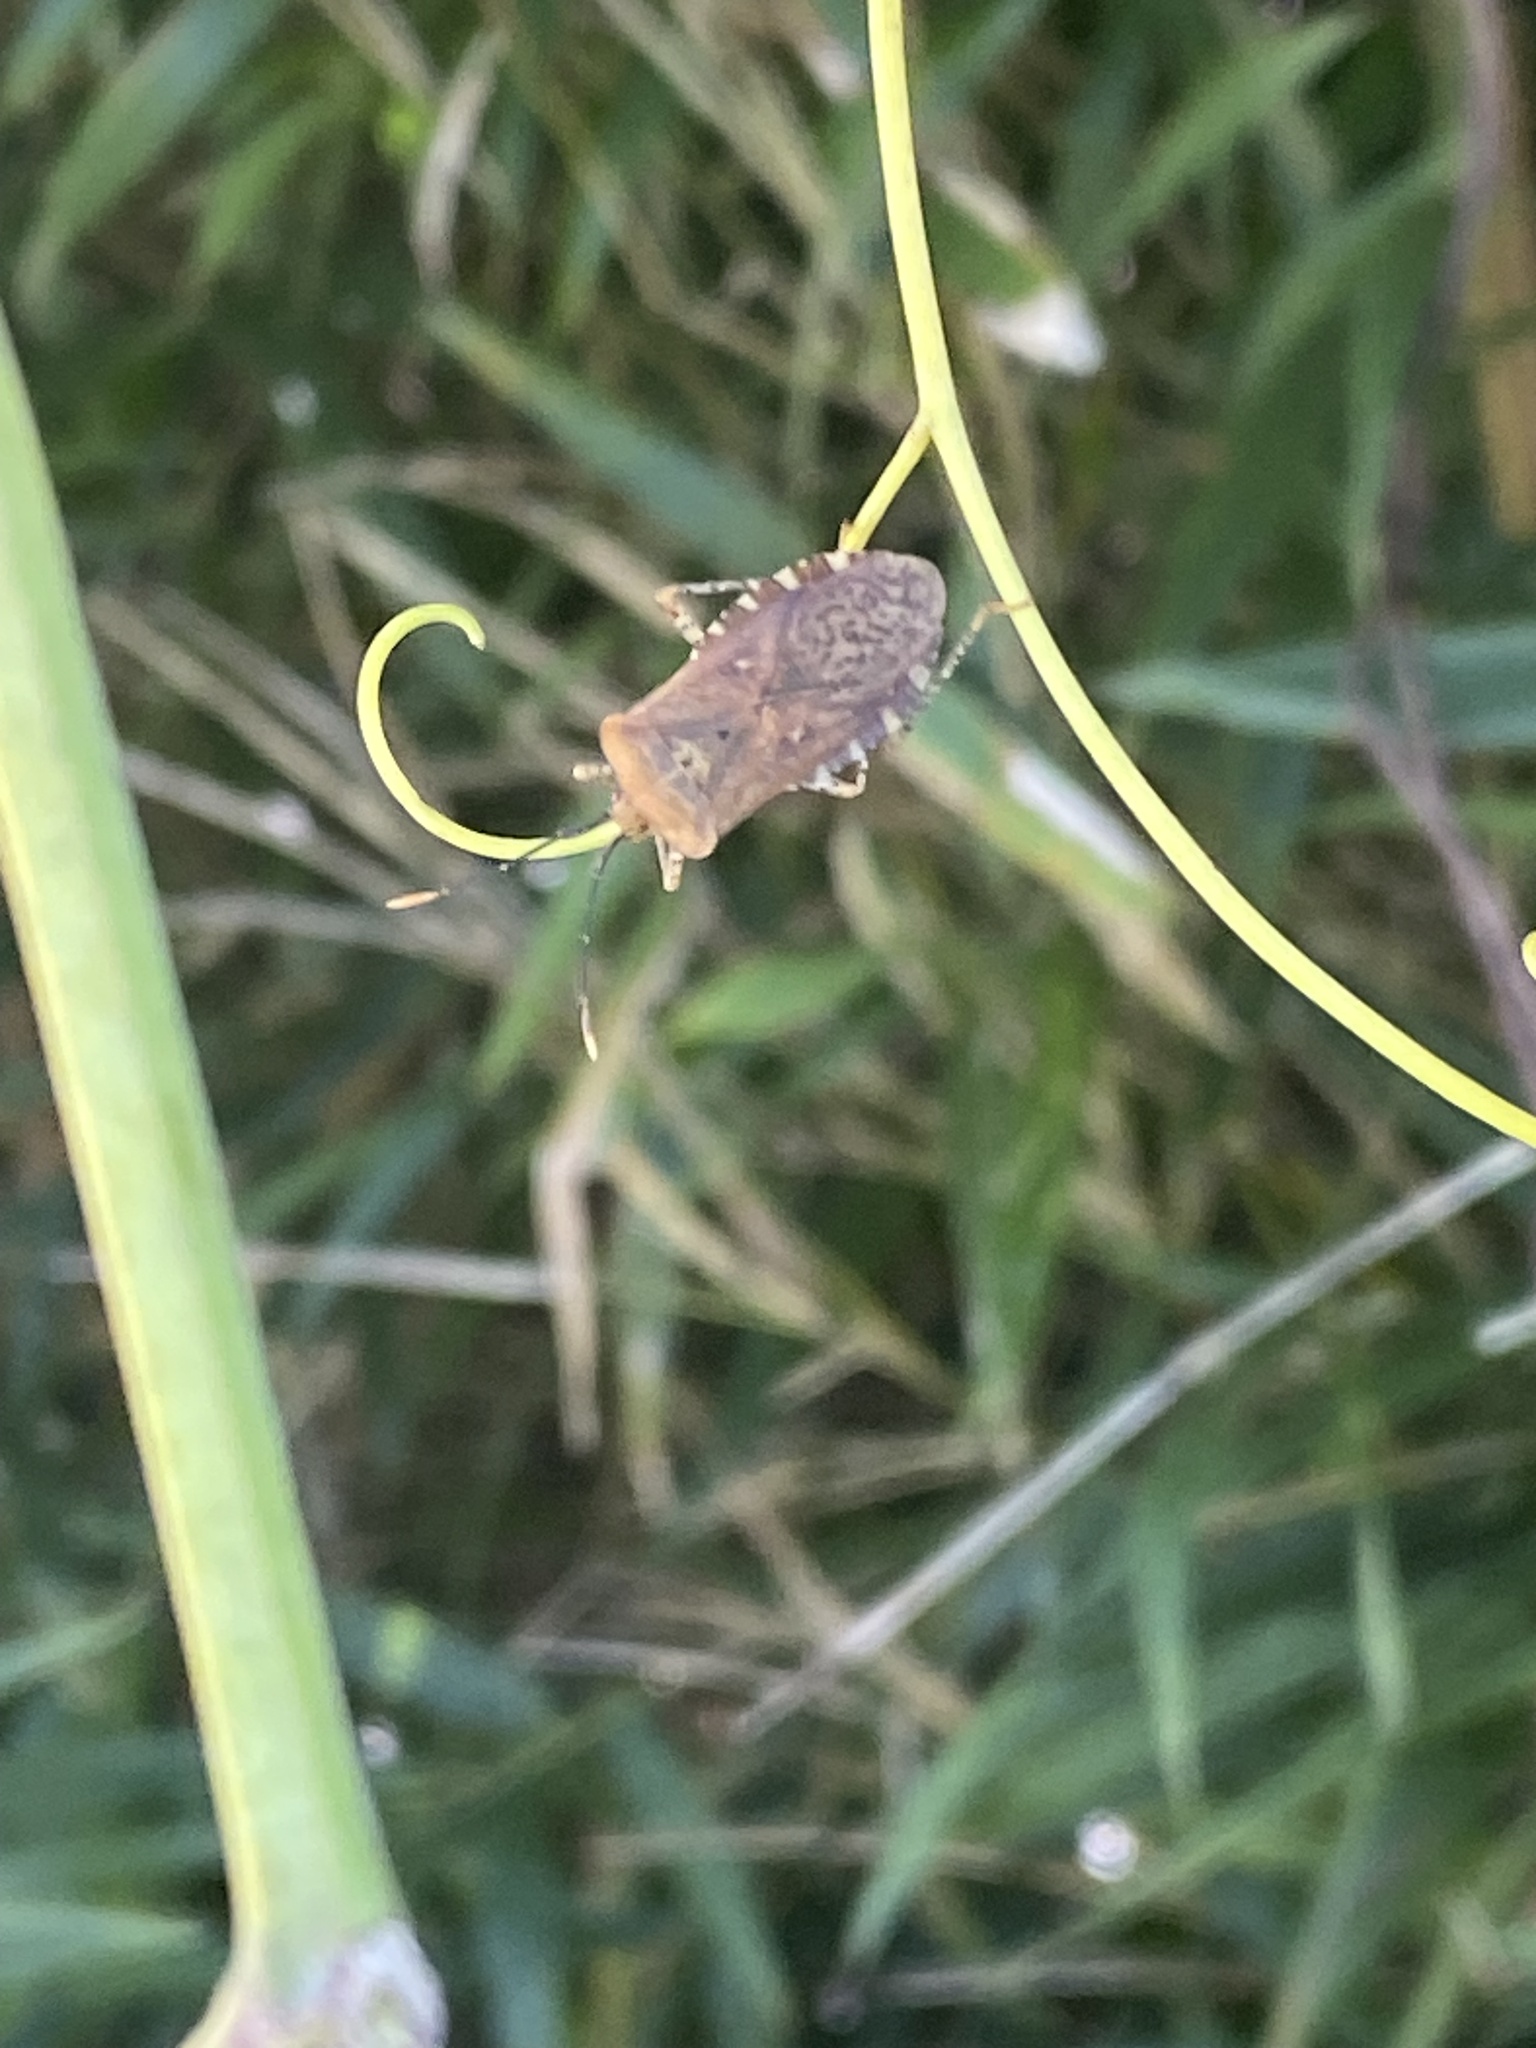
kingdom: Animalia
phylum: Arthropoda
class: Insecta
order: Hemiptera
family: Coreidae
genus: Anasa
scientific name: Anasa repetita
